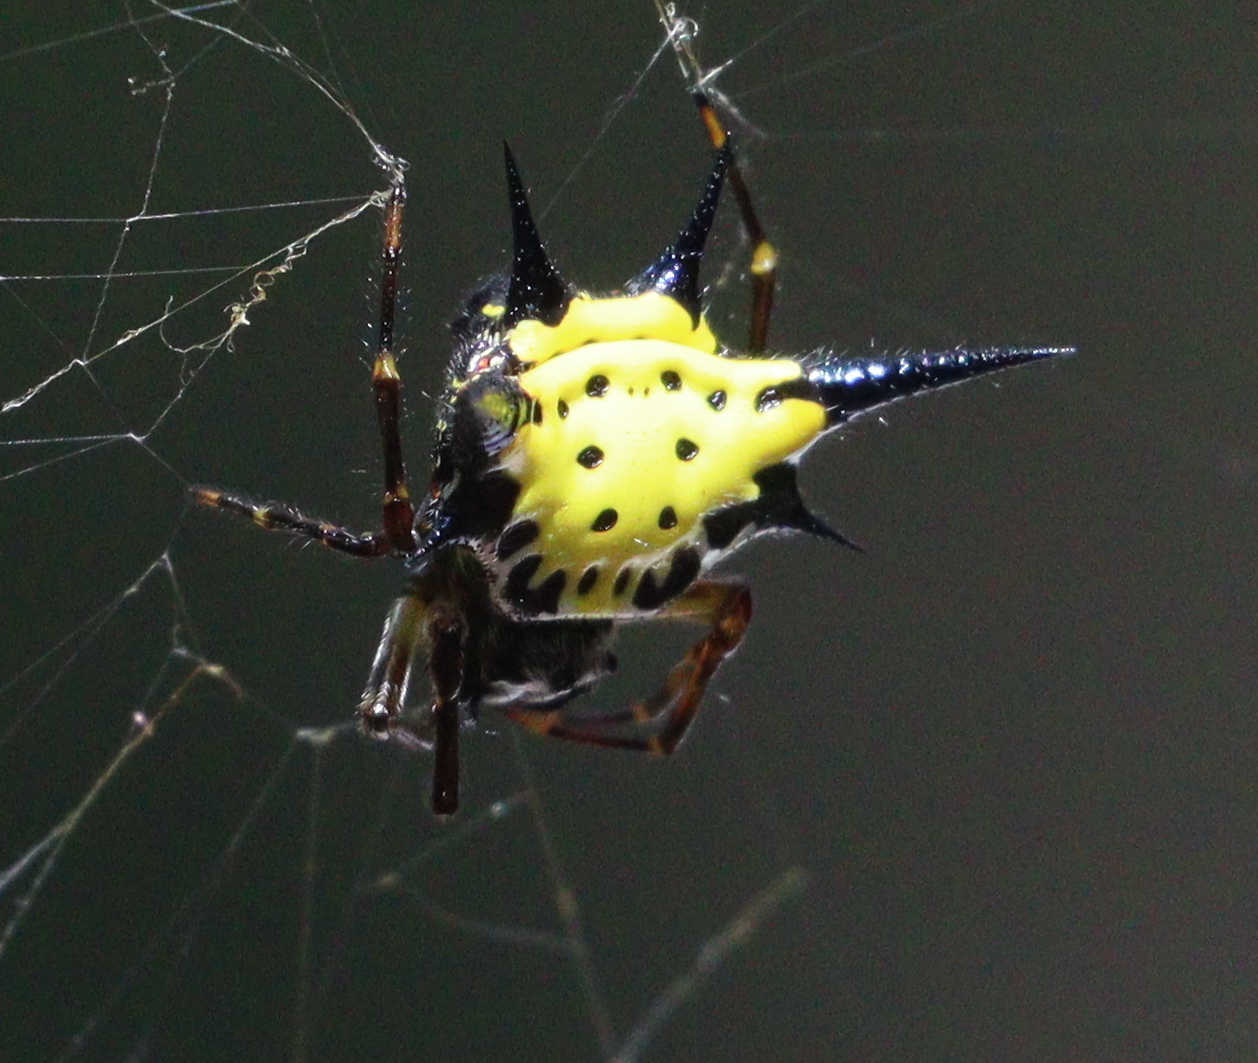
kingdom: Animalia
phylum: Arthropoda
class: Arachnida
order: Araneae
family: Araneidae
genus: Macracantha
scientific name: Macracantha hasselti
